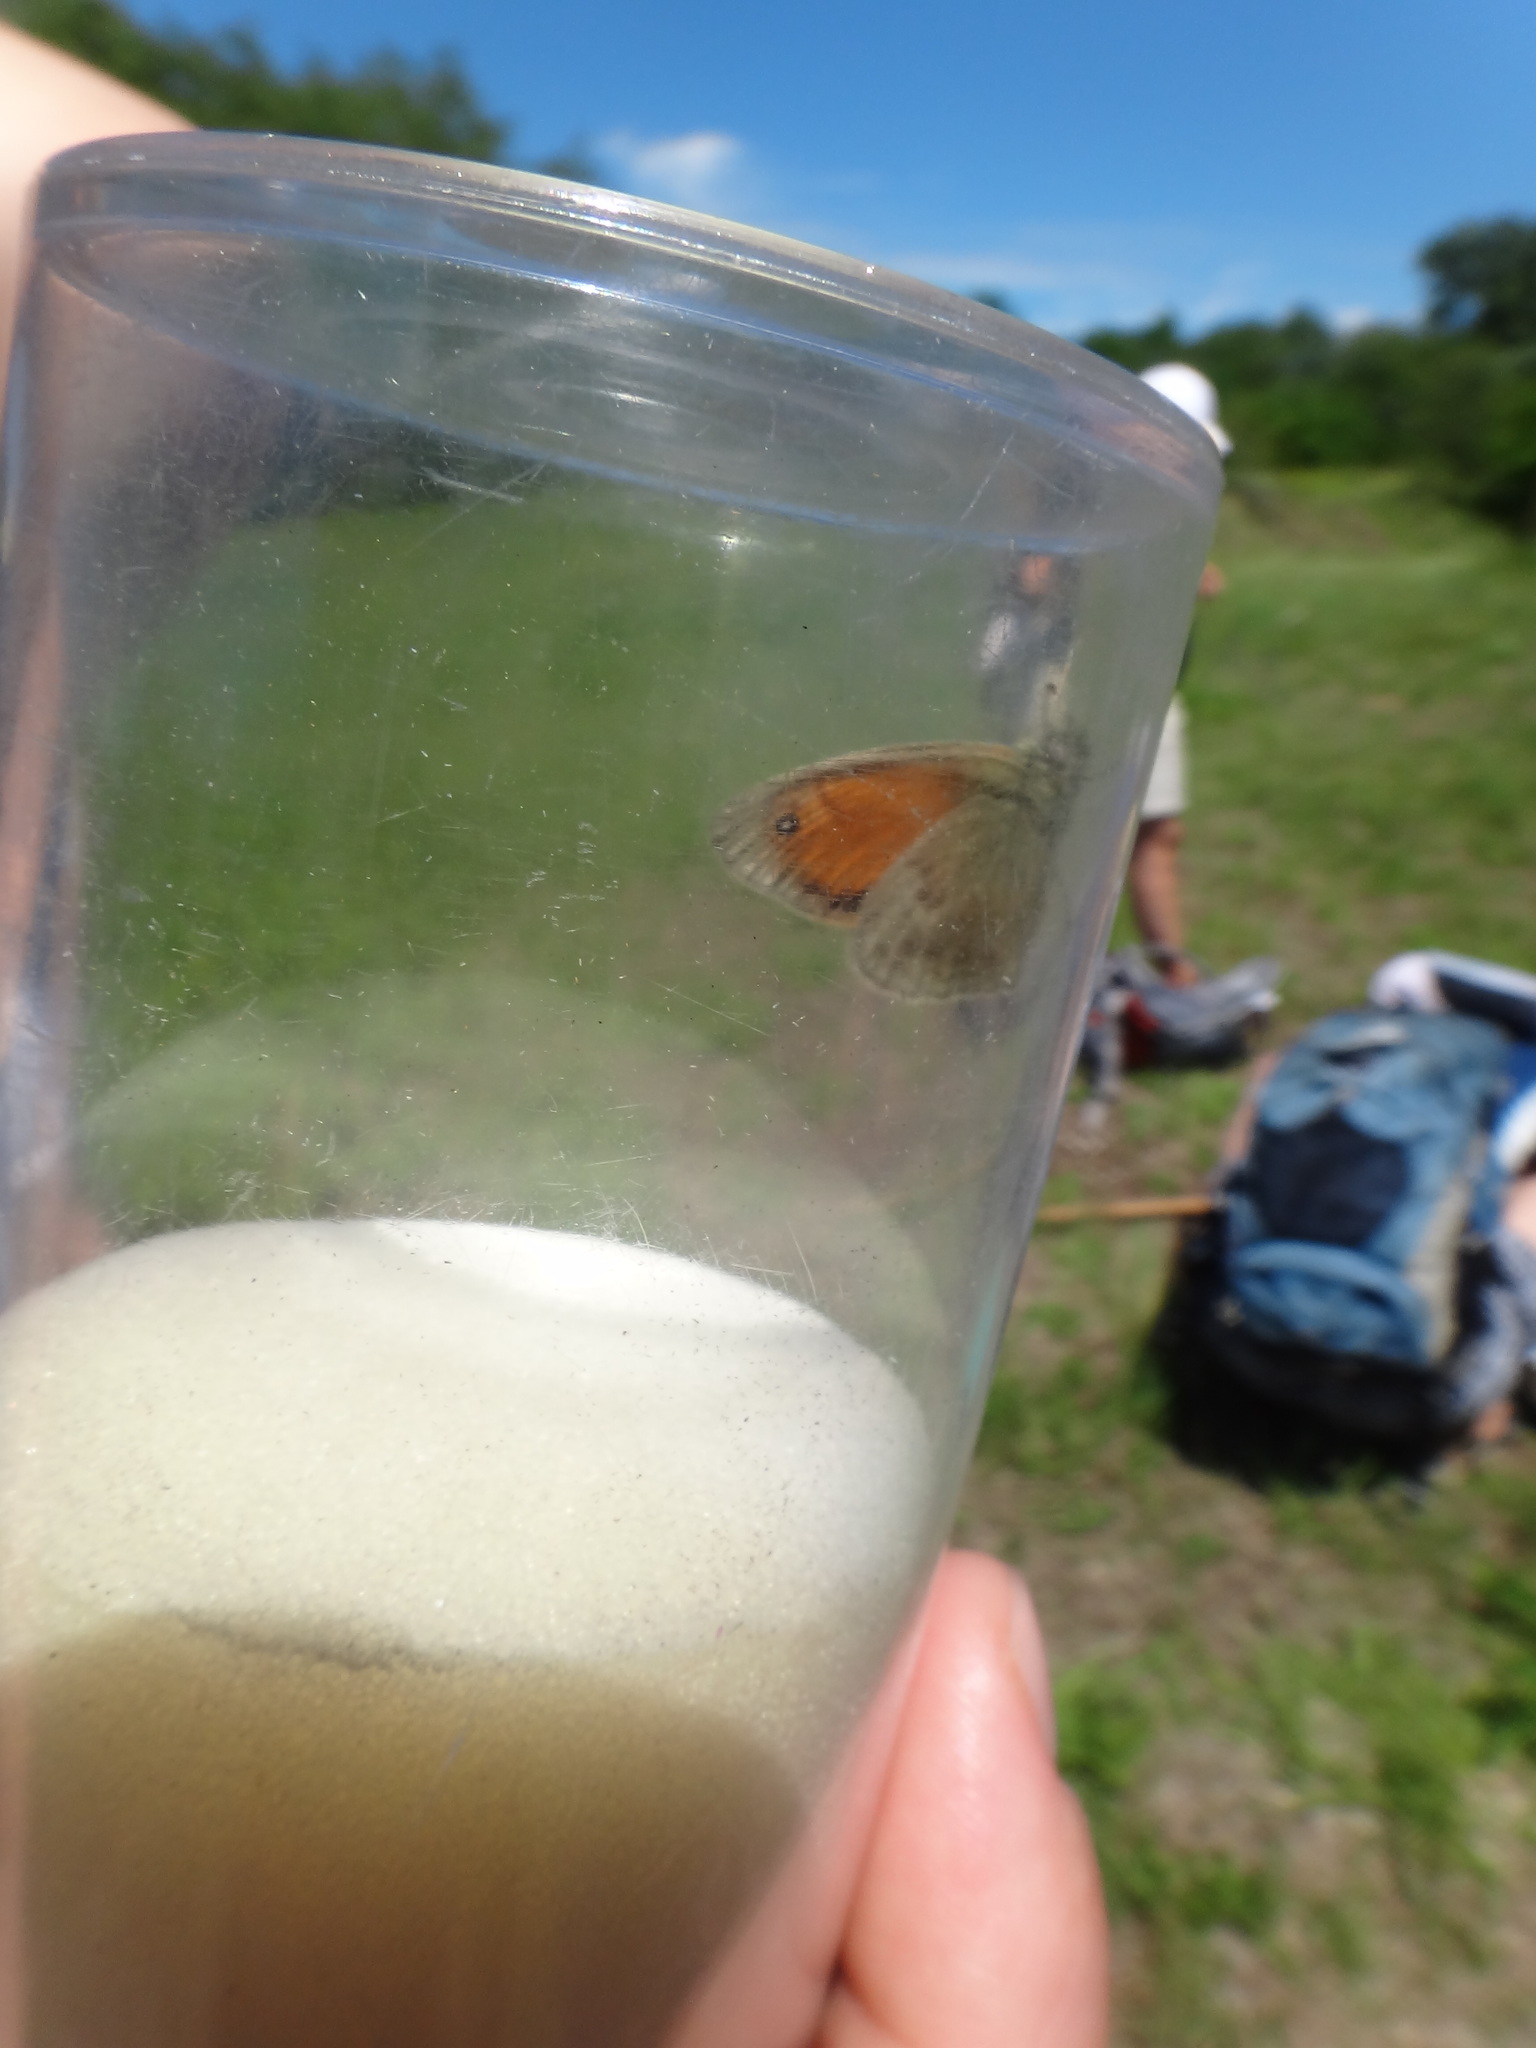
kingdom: Animalia
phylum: Arthropoda
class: Insecta
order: Lepidoptera
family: Nymphalidae
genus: Coenonympha
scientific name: Coenonympha pamphilus
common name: Small heath
